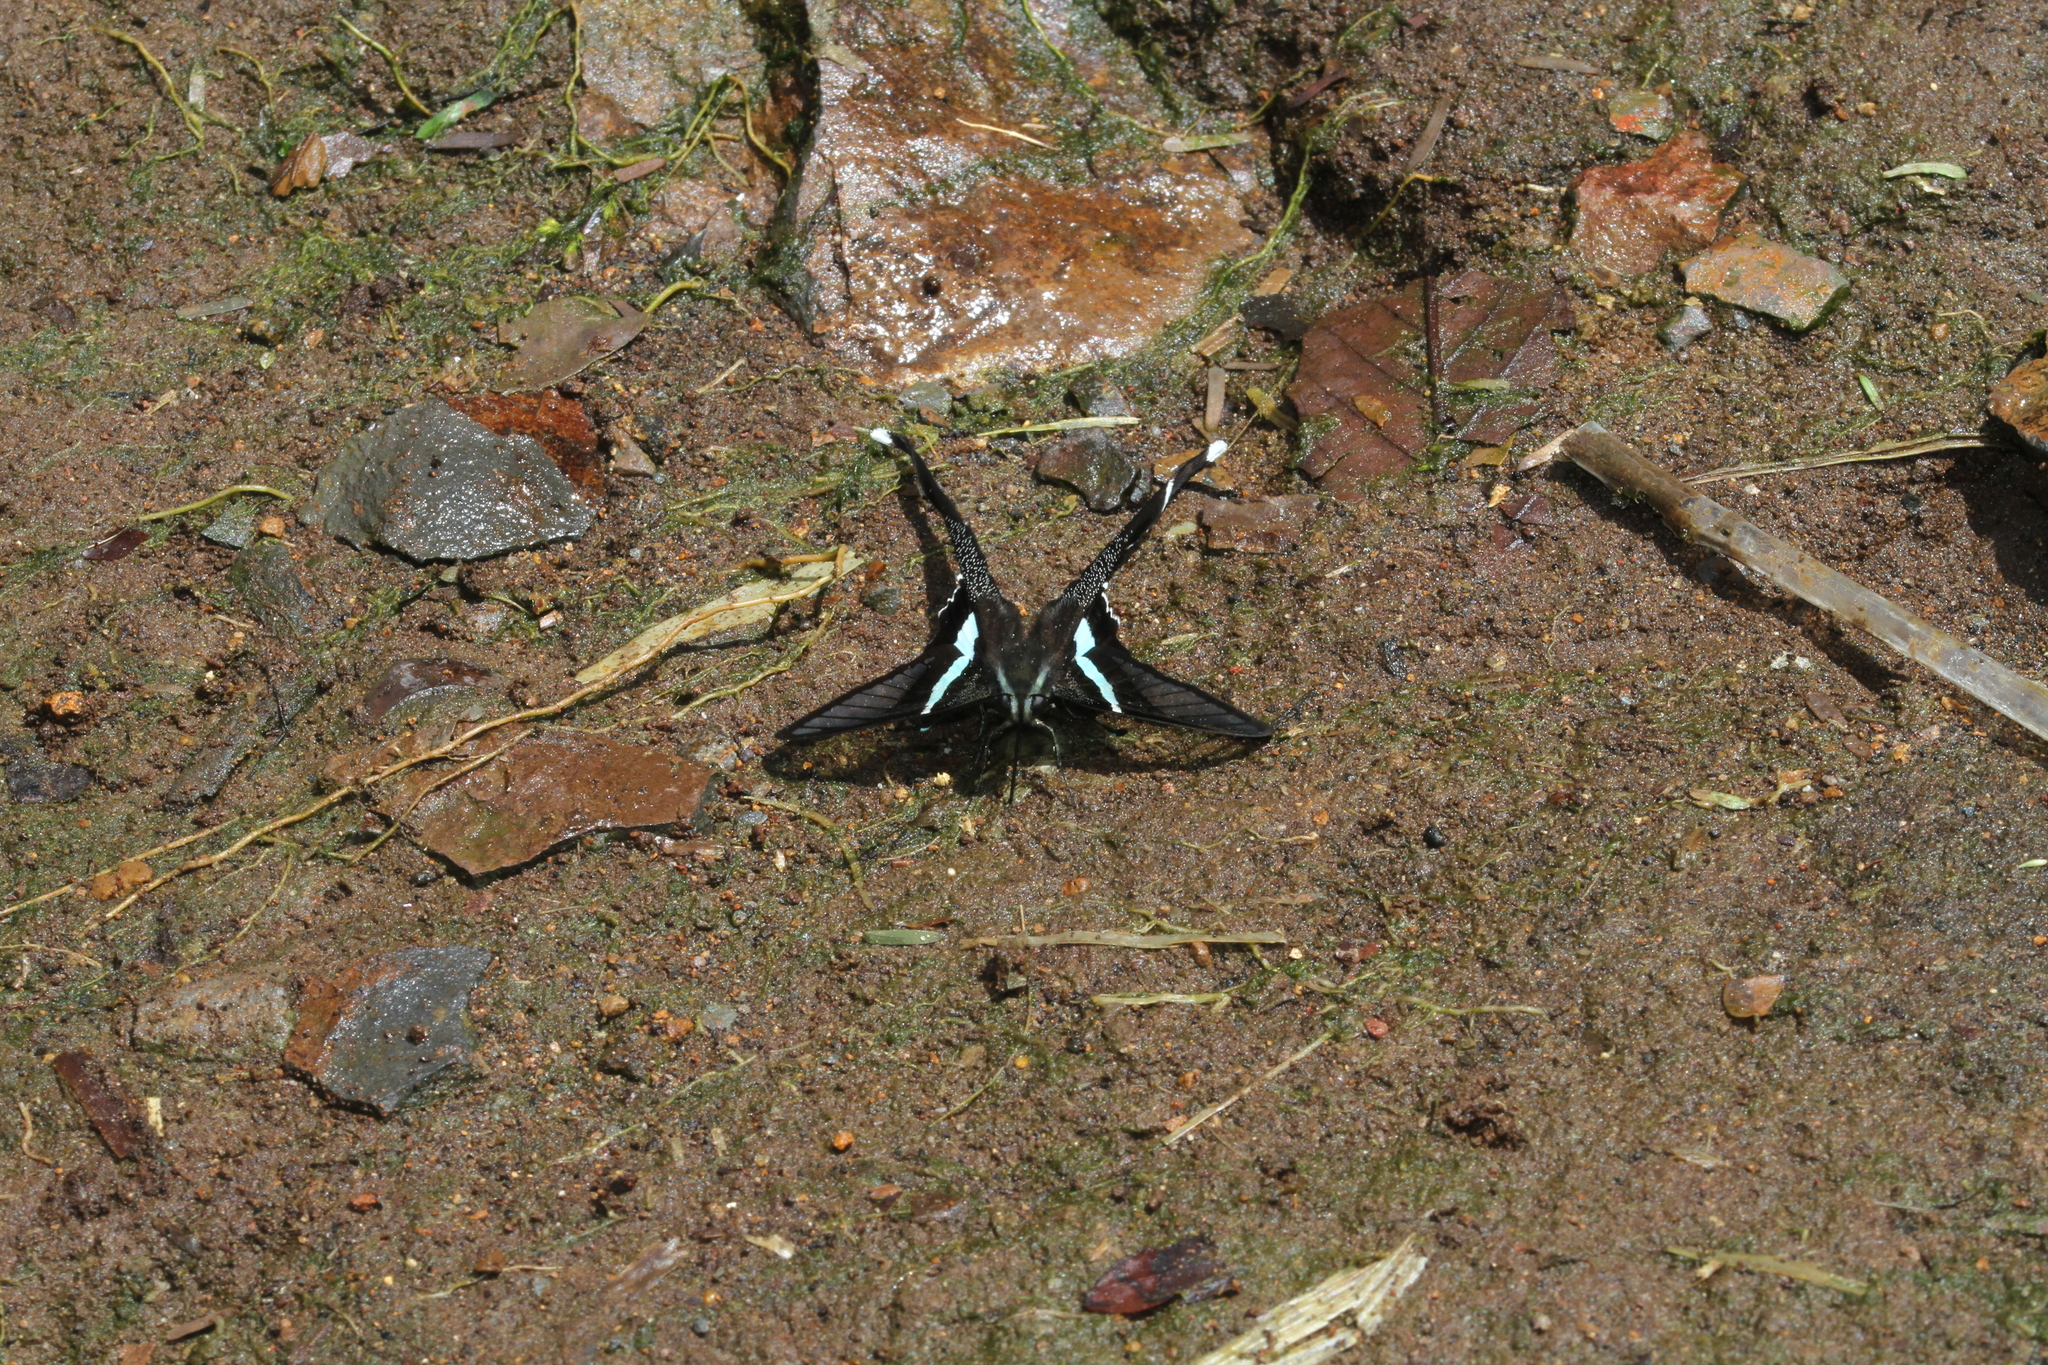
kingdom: Animalia
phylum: Arthropoda
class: Insecta
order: Lepidoptera
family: Papilionidae
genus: Lamproptera
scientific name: Lamproptera meges
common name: Green dragontail
